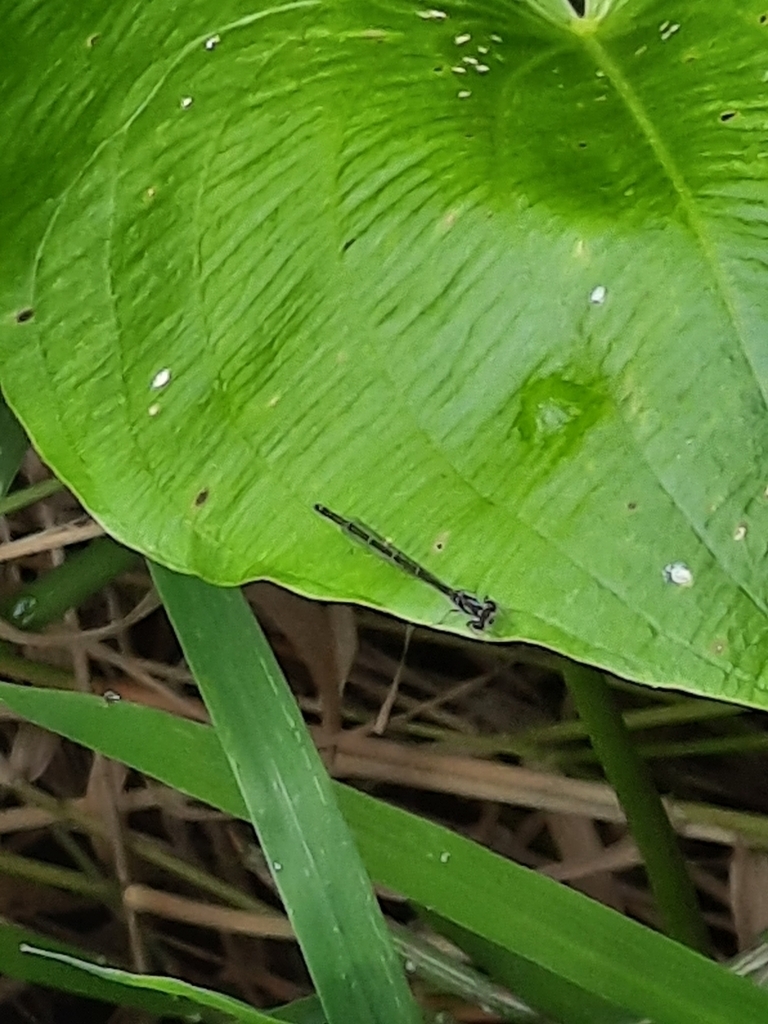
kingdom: Animalia
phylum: Arthropoda
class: Insecta
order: Odonata
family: Coenagrionidae
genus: Ischnura
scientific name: Ischnura posita
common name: Fragile forktail
